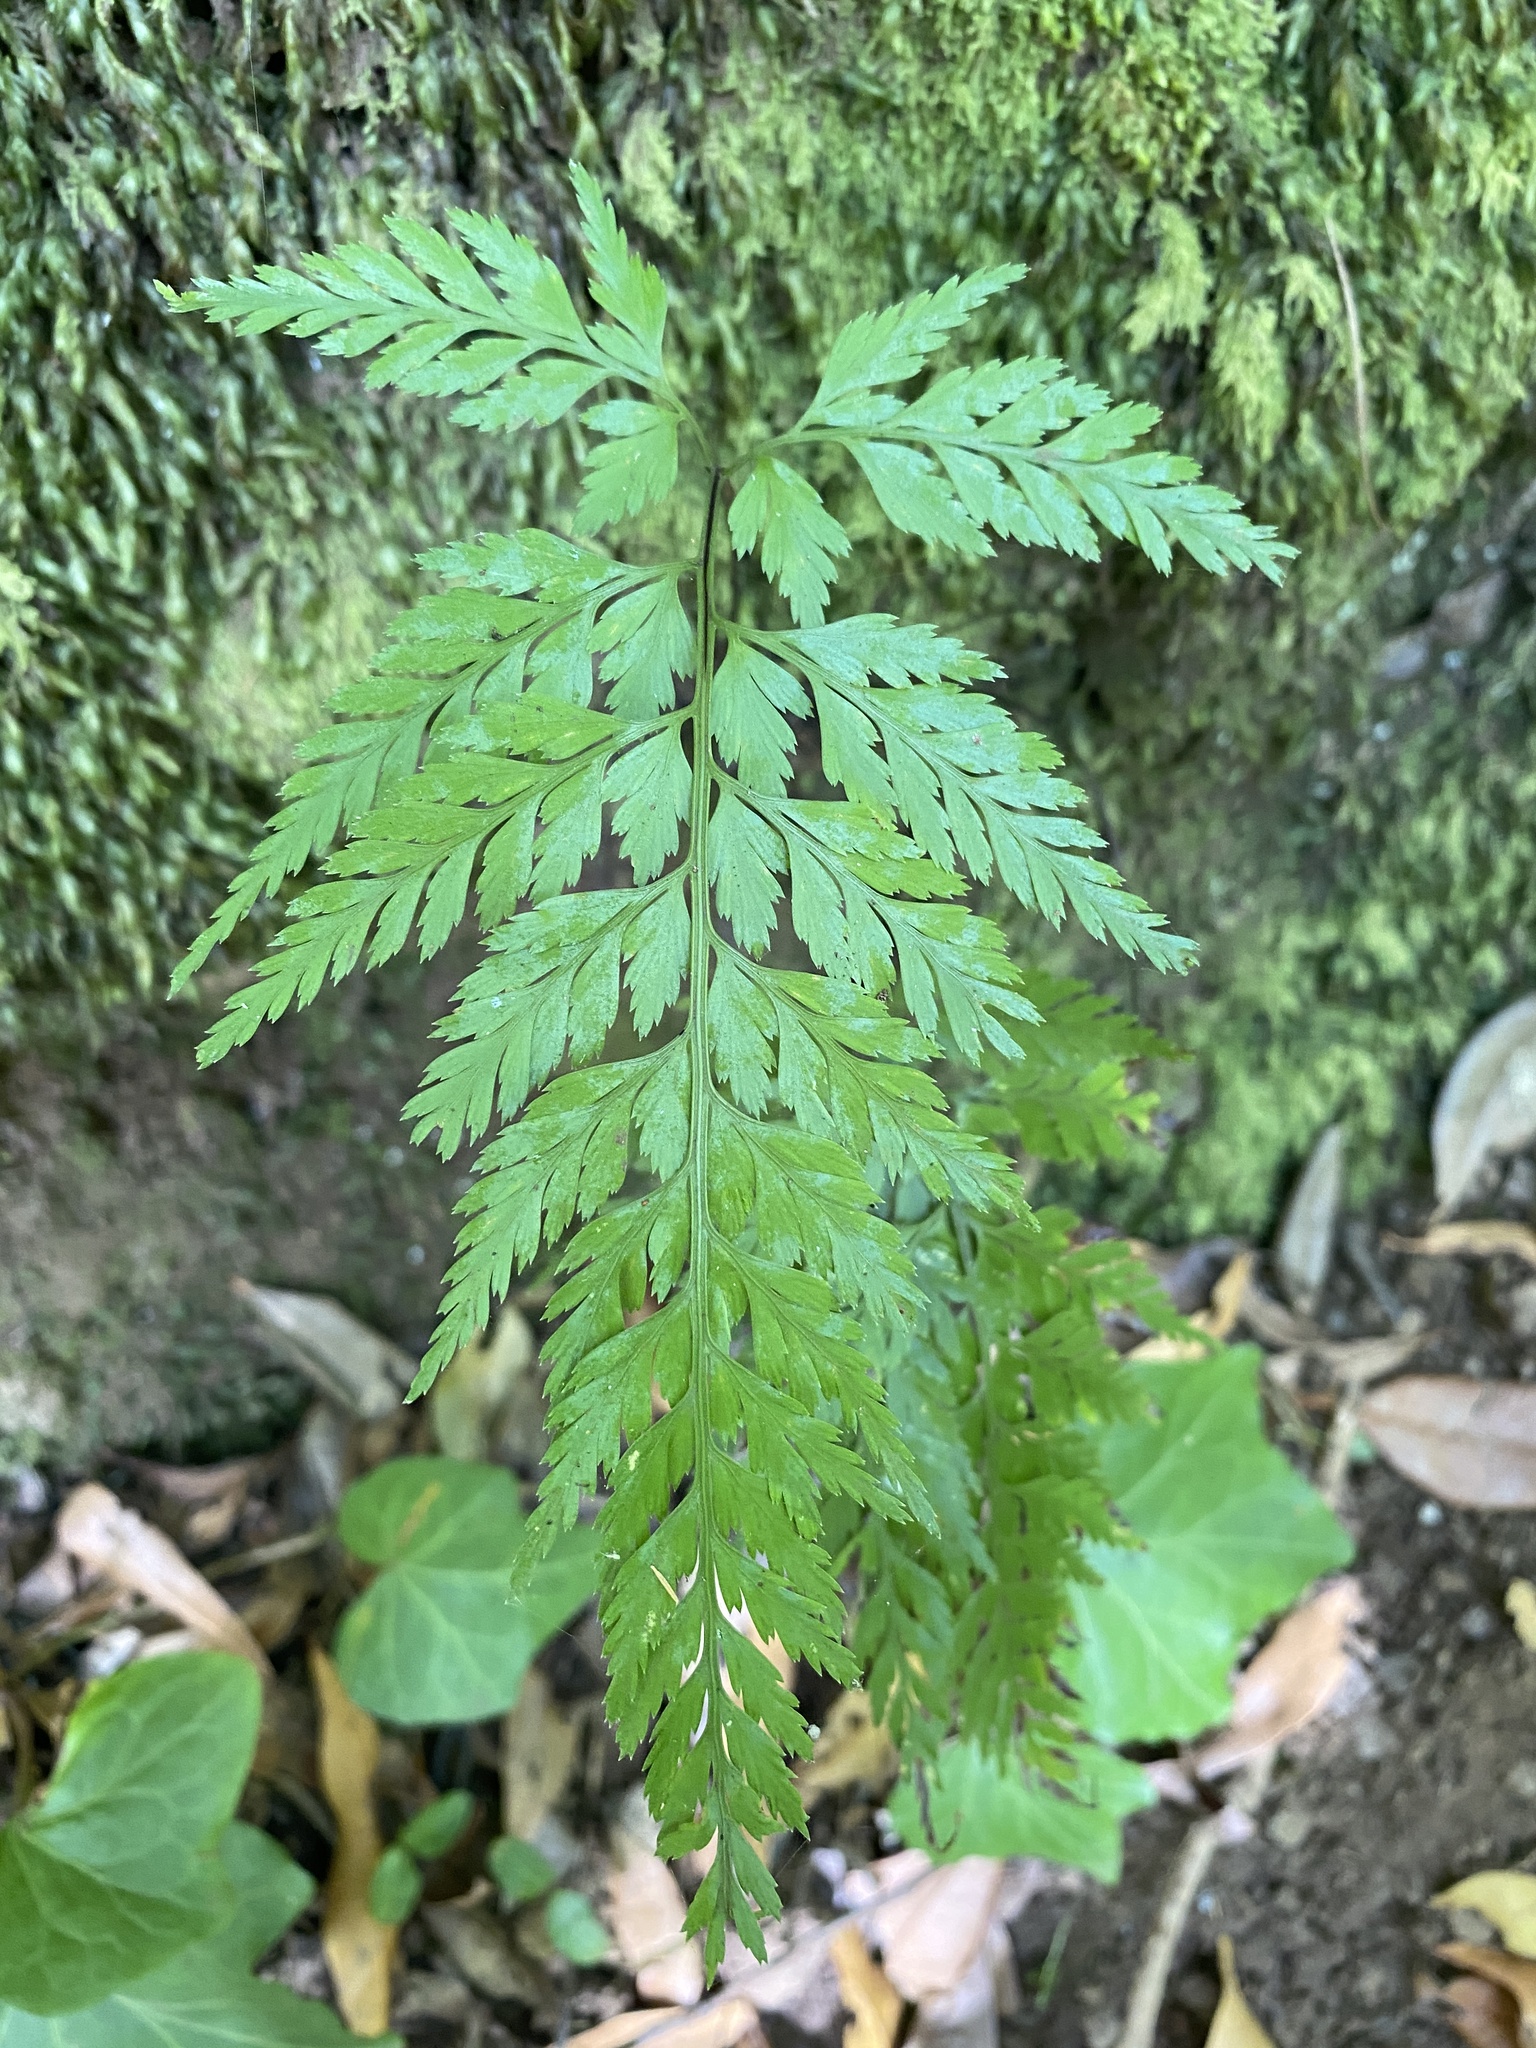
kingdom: Plantae
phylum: Tracheophyta
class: Polypodiopsida
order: Polypodiales
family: Aspleniaceae
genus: Asplenium
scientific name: Asplenium onopteris
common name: Irish spleenwort
